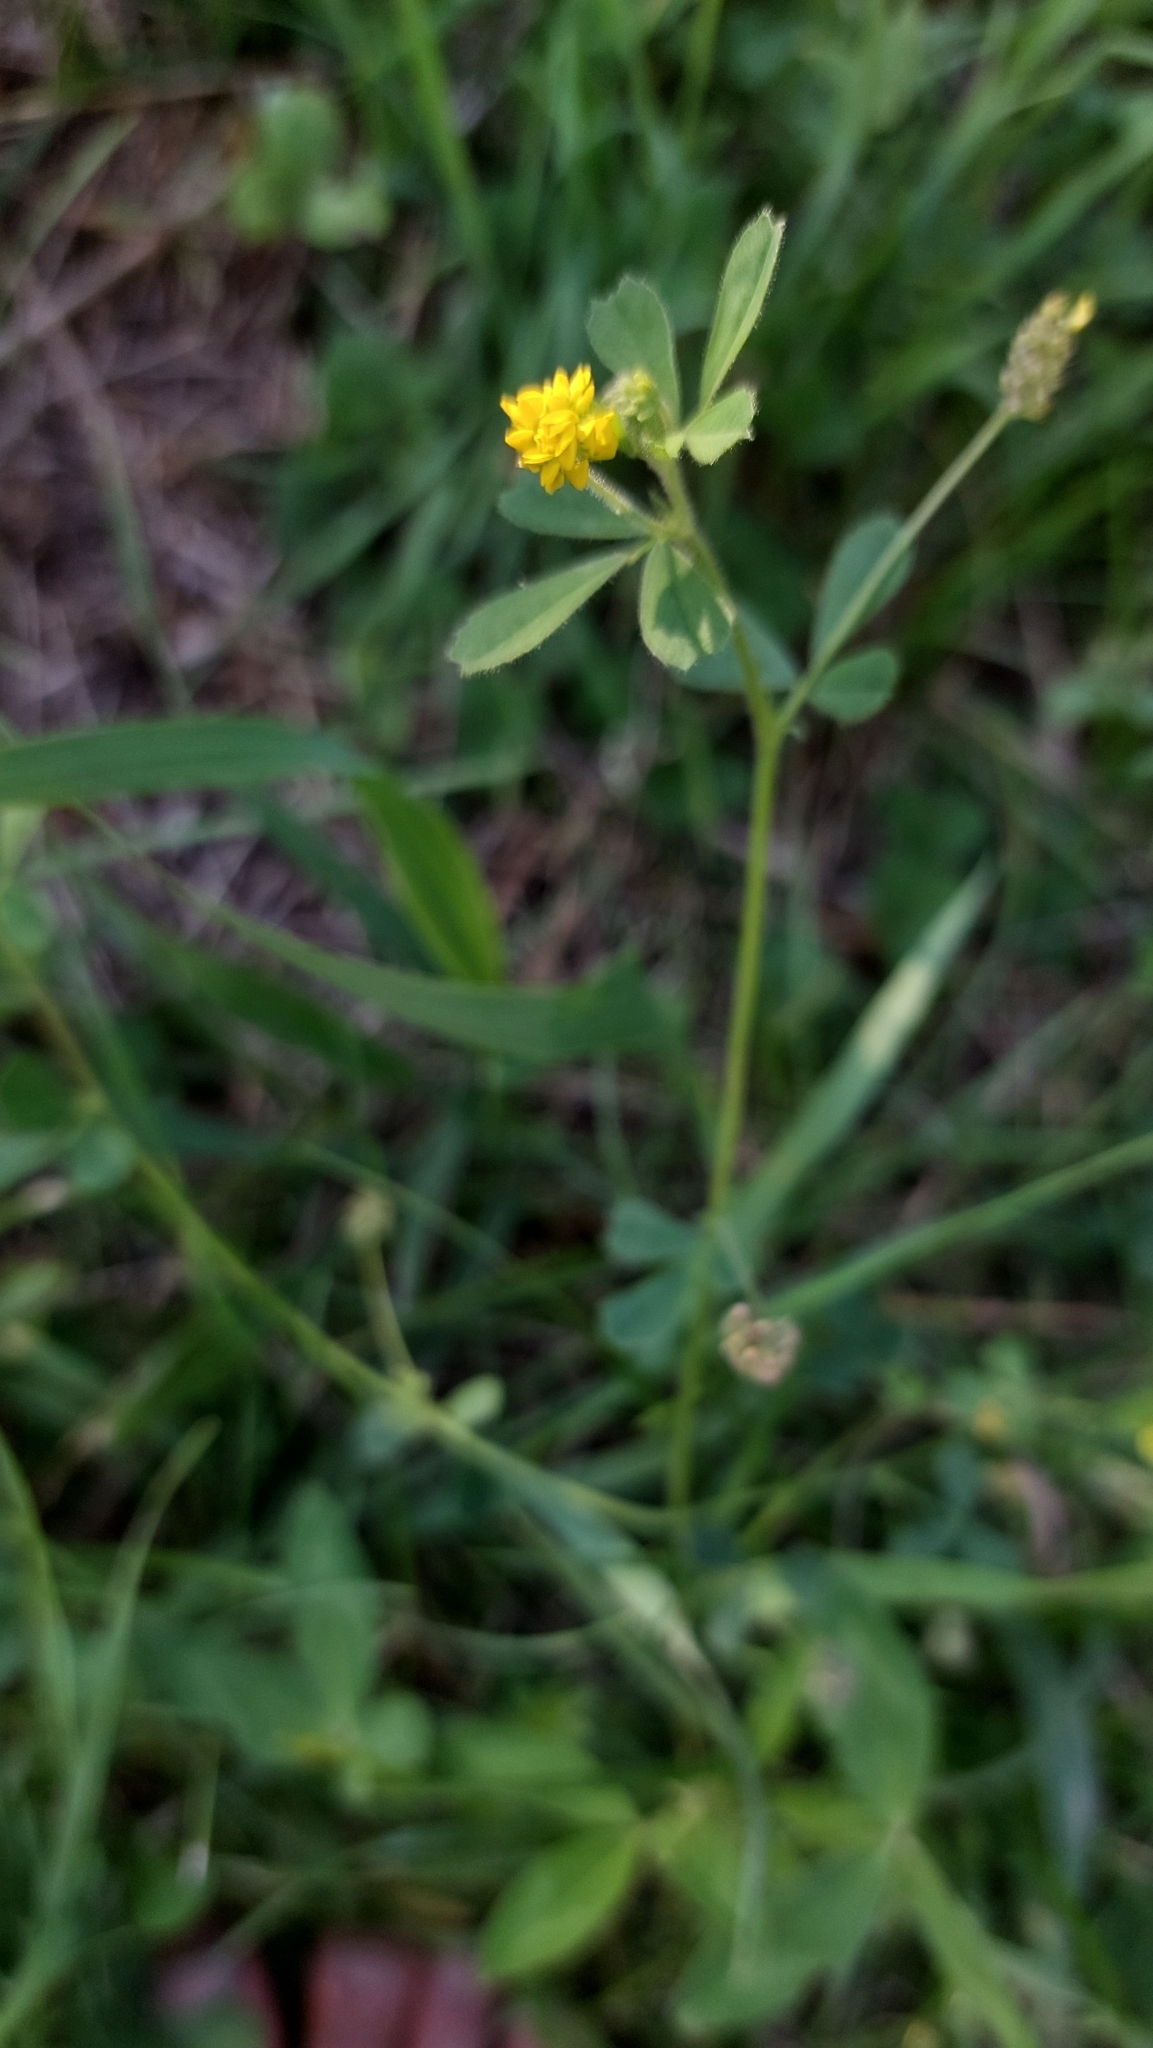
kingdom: Plantae
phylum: Tracheophyta
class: Magnoliopsida
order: Fabales
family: Fabaceae
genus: Medicago
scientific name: Medicago lupulina
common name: Black medick
